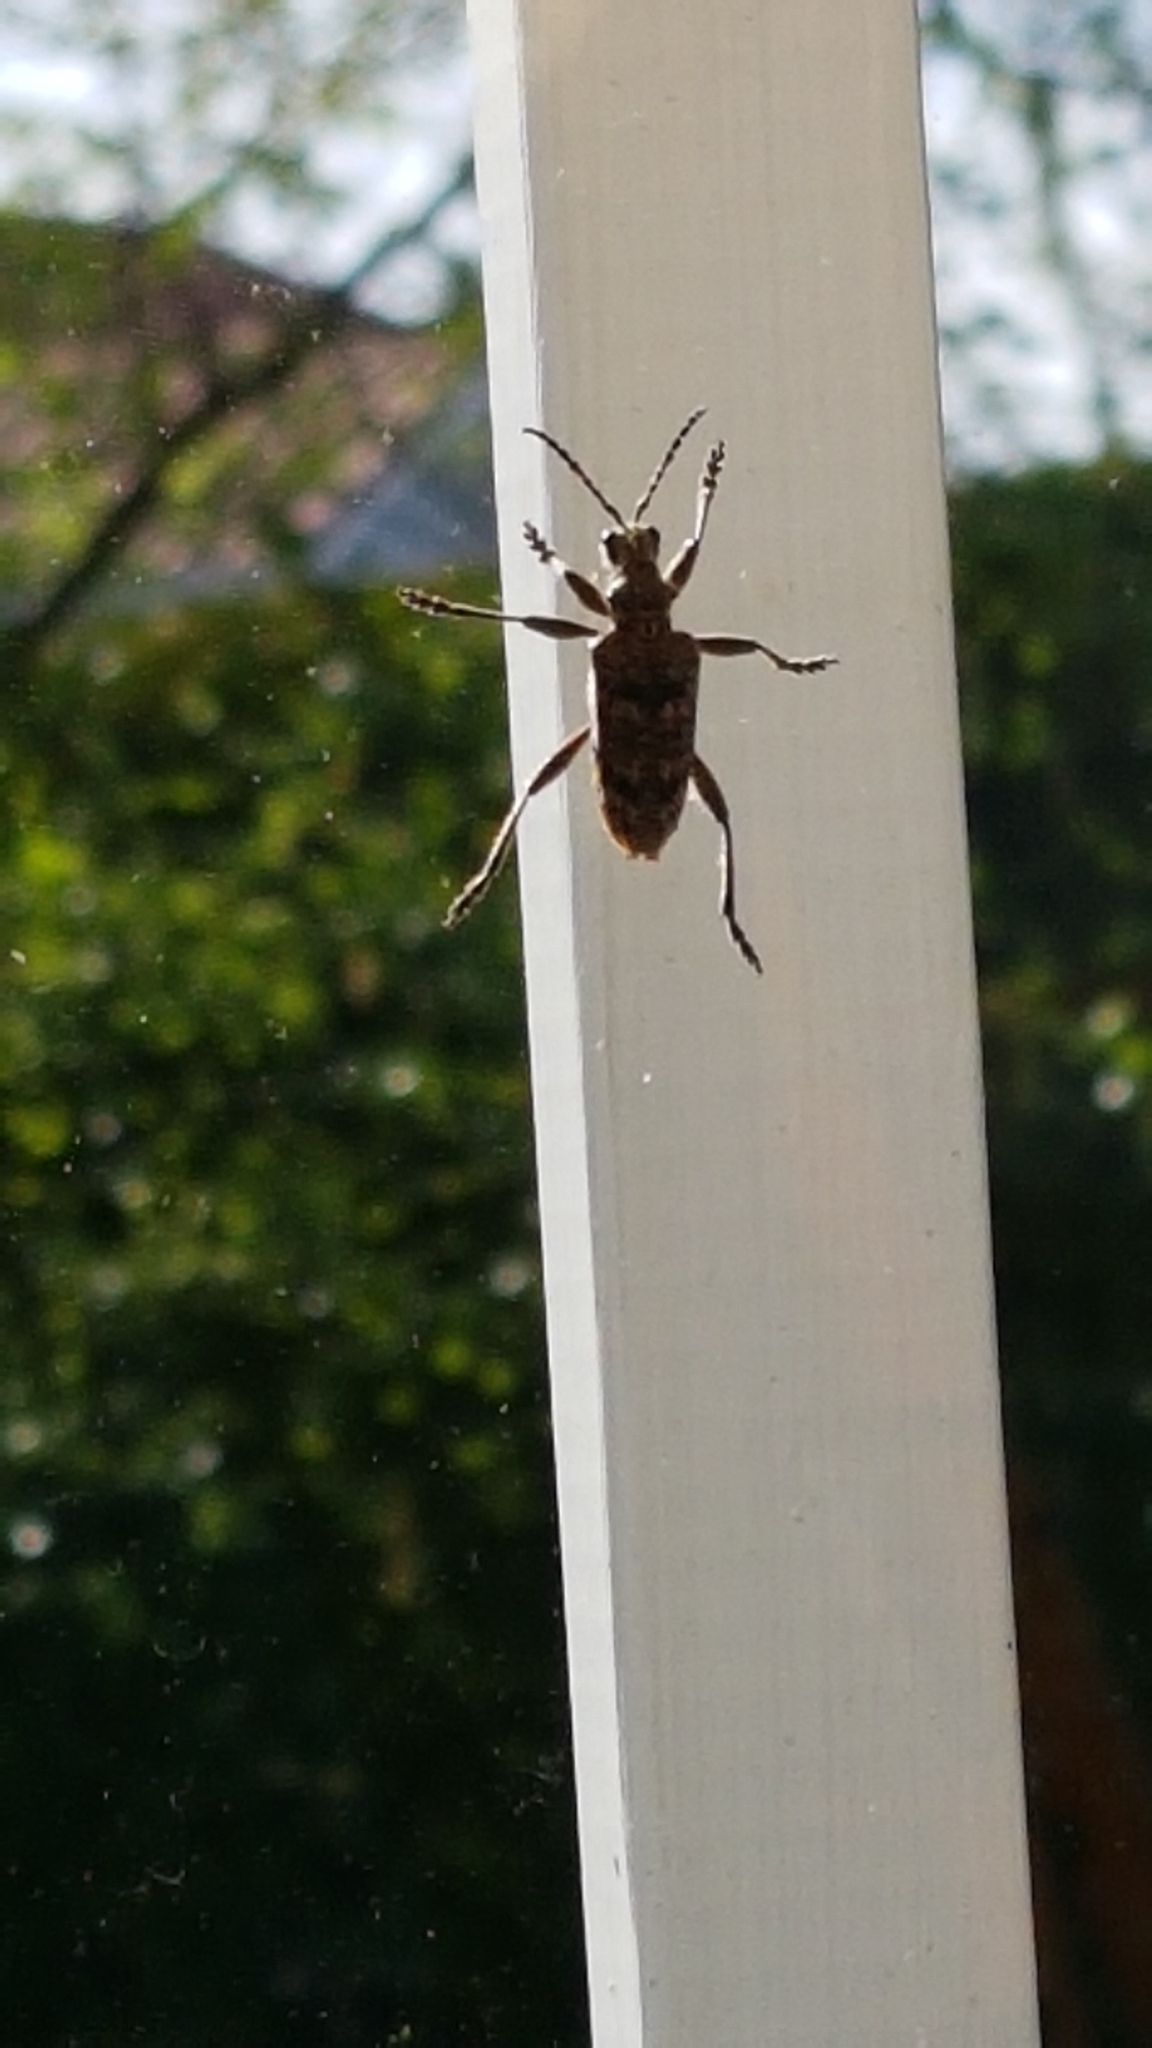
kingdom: Animalia
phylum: Arthropoda
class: Insecta
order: Coleoptera
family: Cerambycidae
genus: Rhagium
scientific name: Rhagium inquisitor
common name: Ribbed pine borer
